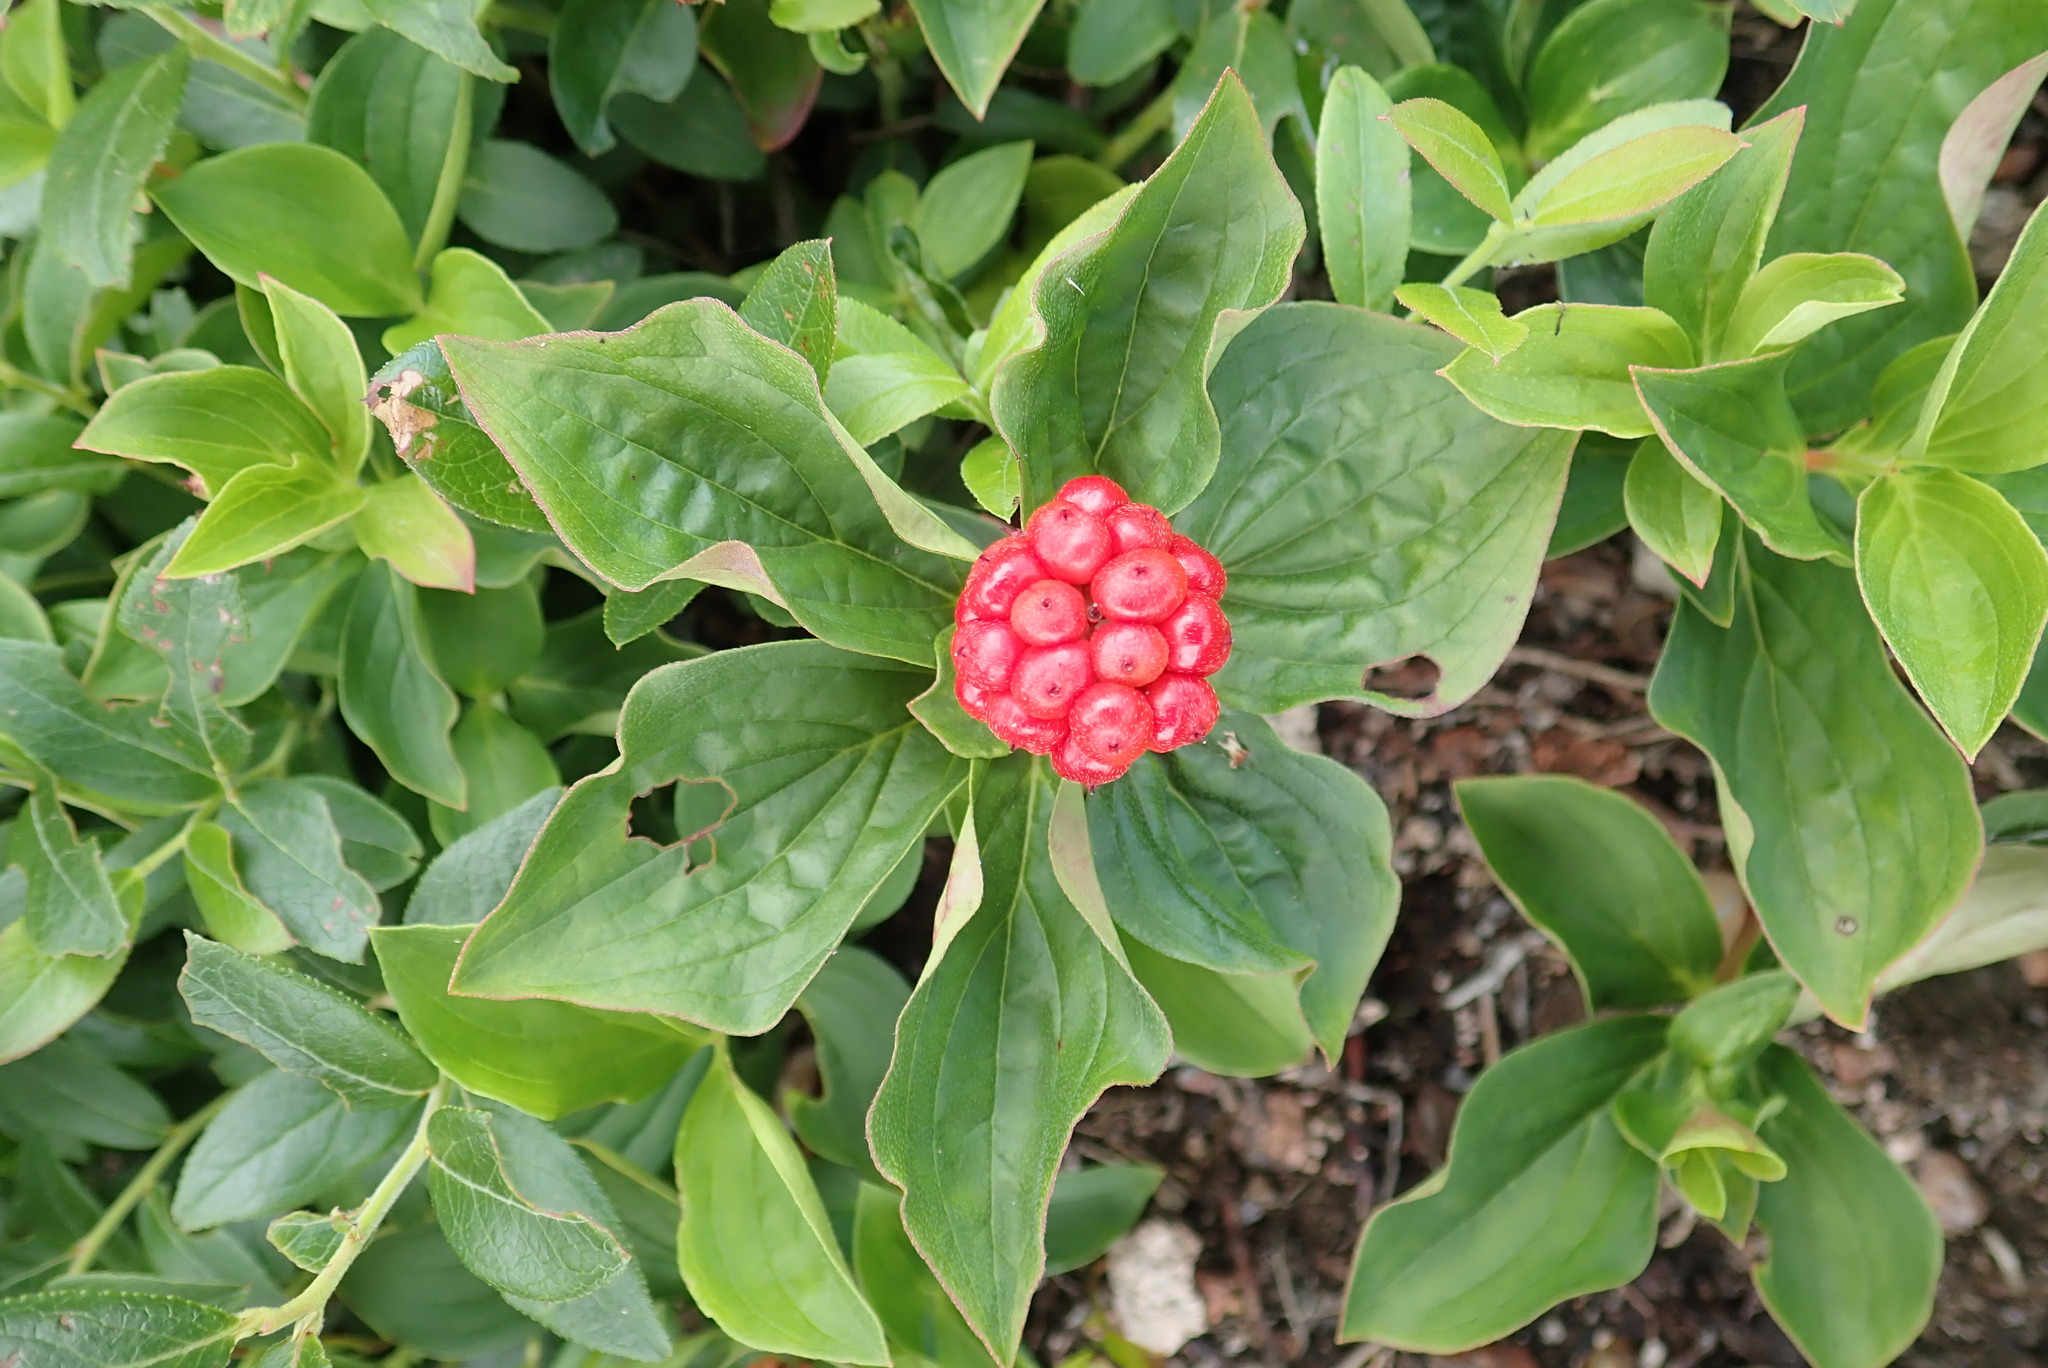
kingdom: Plantae
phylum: Tracheophyta
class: Magnoliopsida
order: Cornales
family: Cornaceae
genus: Cornus
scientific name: Cornus canadensis
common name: Creeping dogwood
